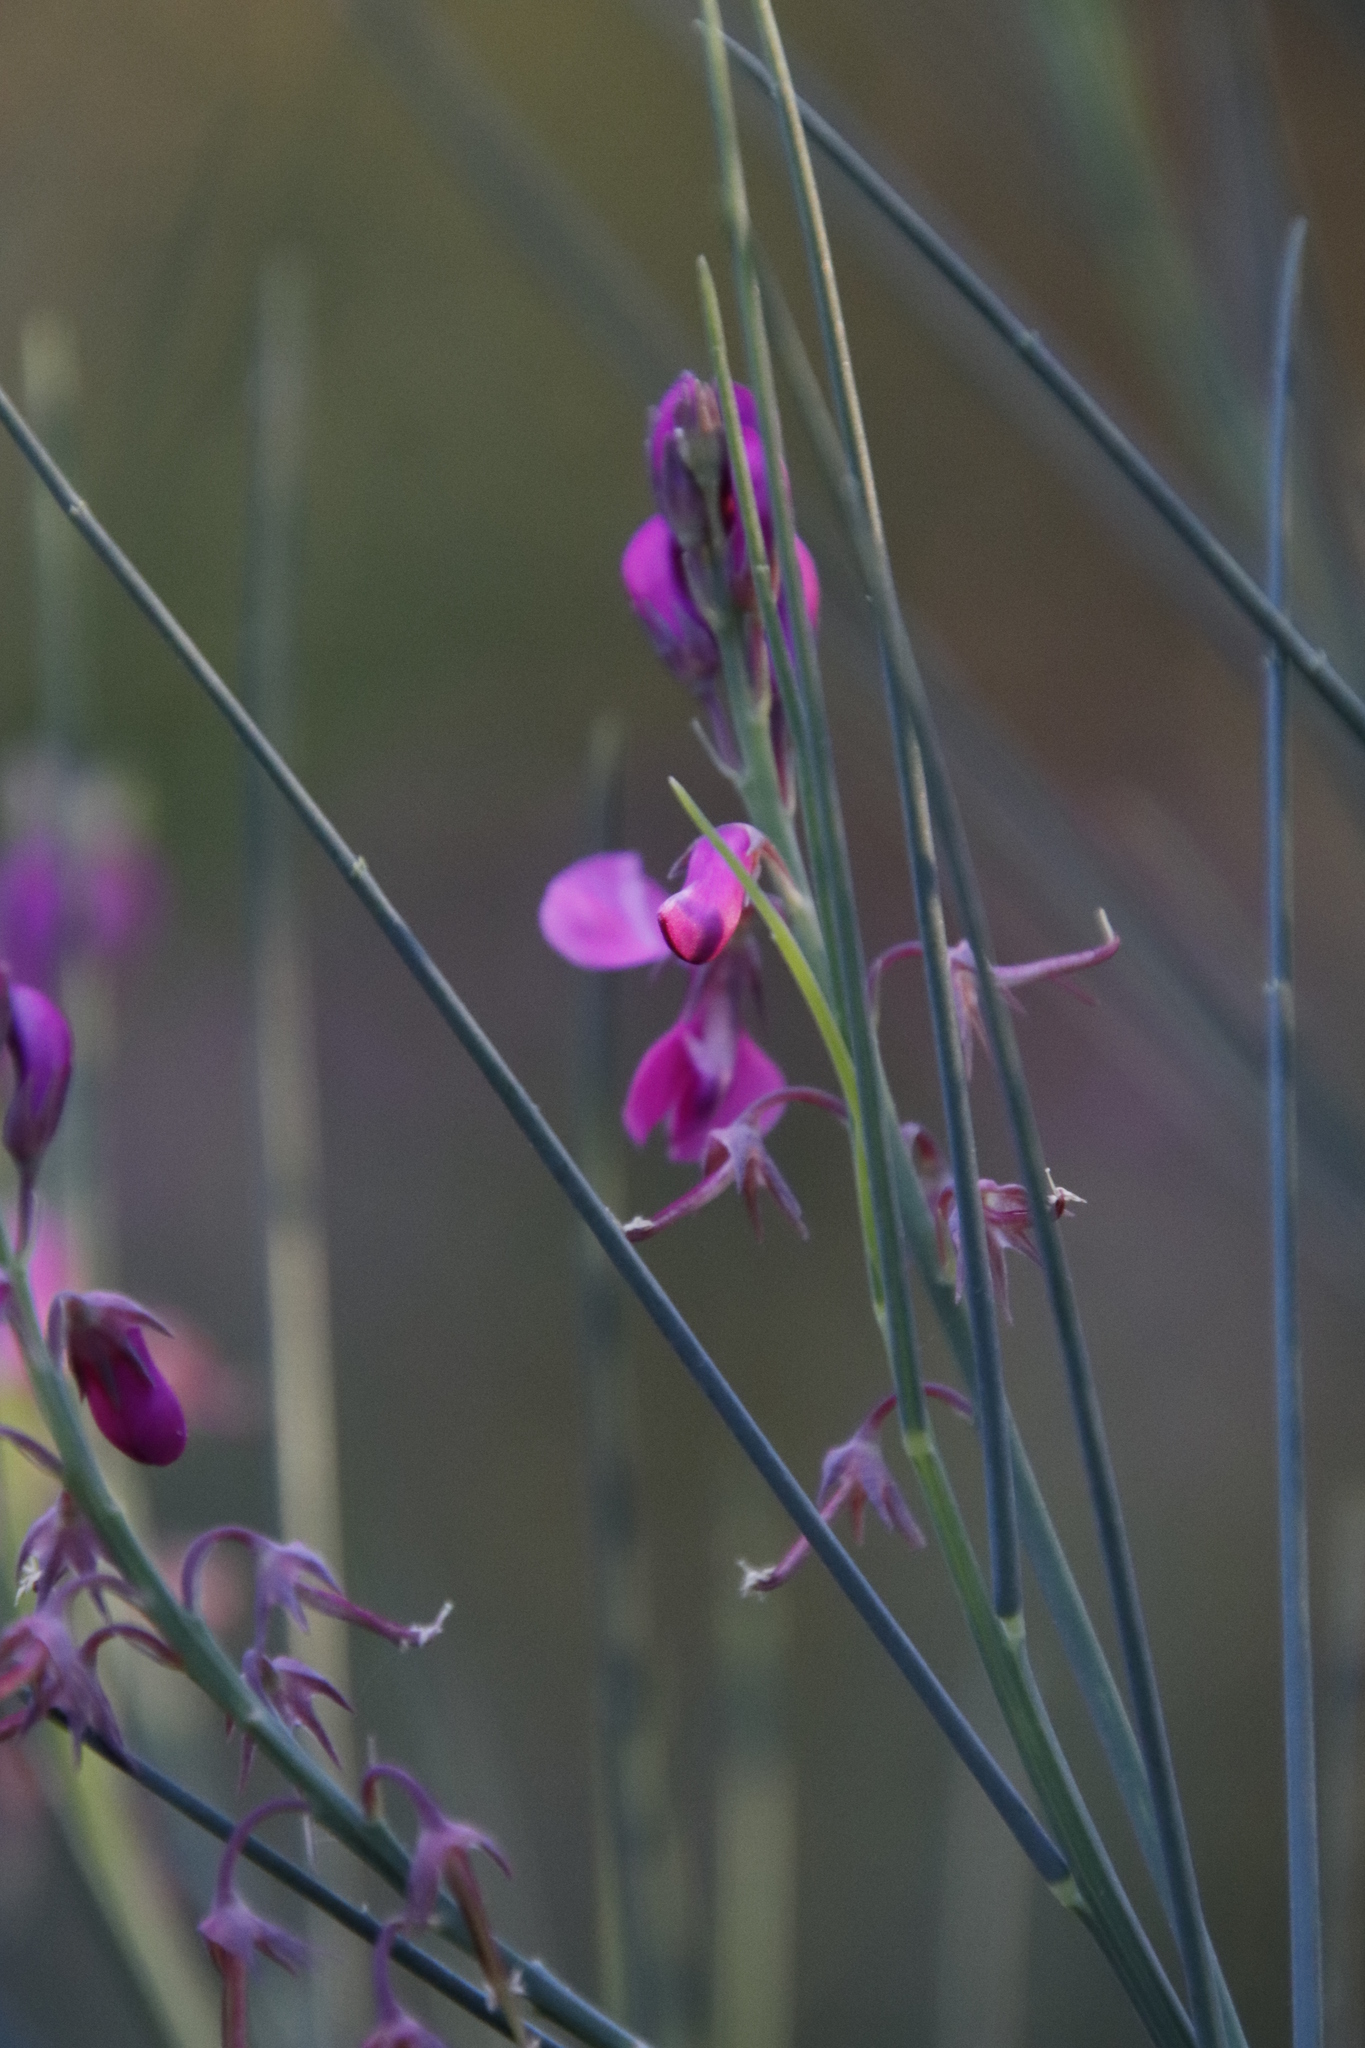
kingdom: Plantae
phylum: Tracheophyta
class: Magnoliopsida
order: Fabales
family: Fabaceae
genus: Indigofera
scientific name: Indigofera filifolia
